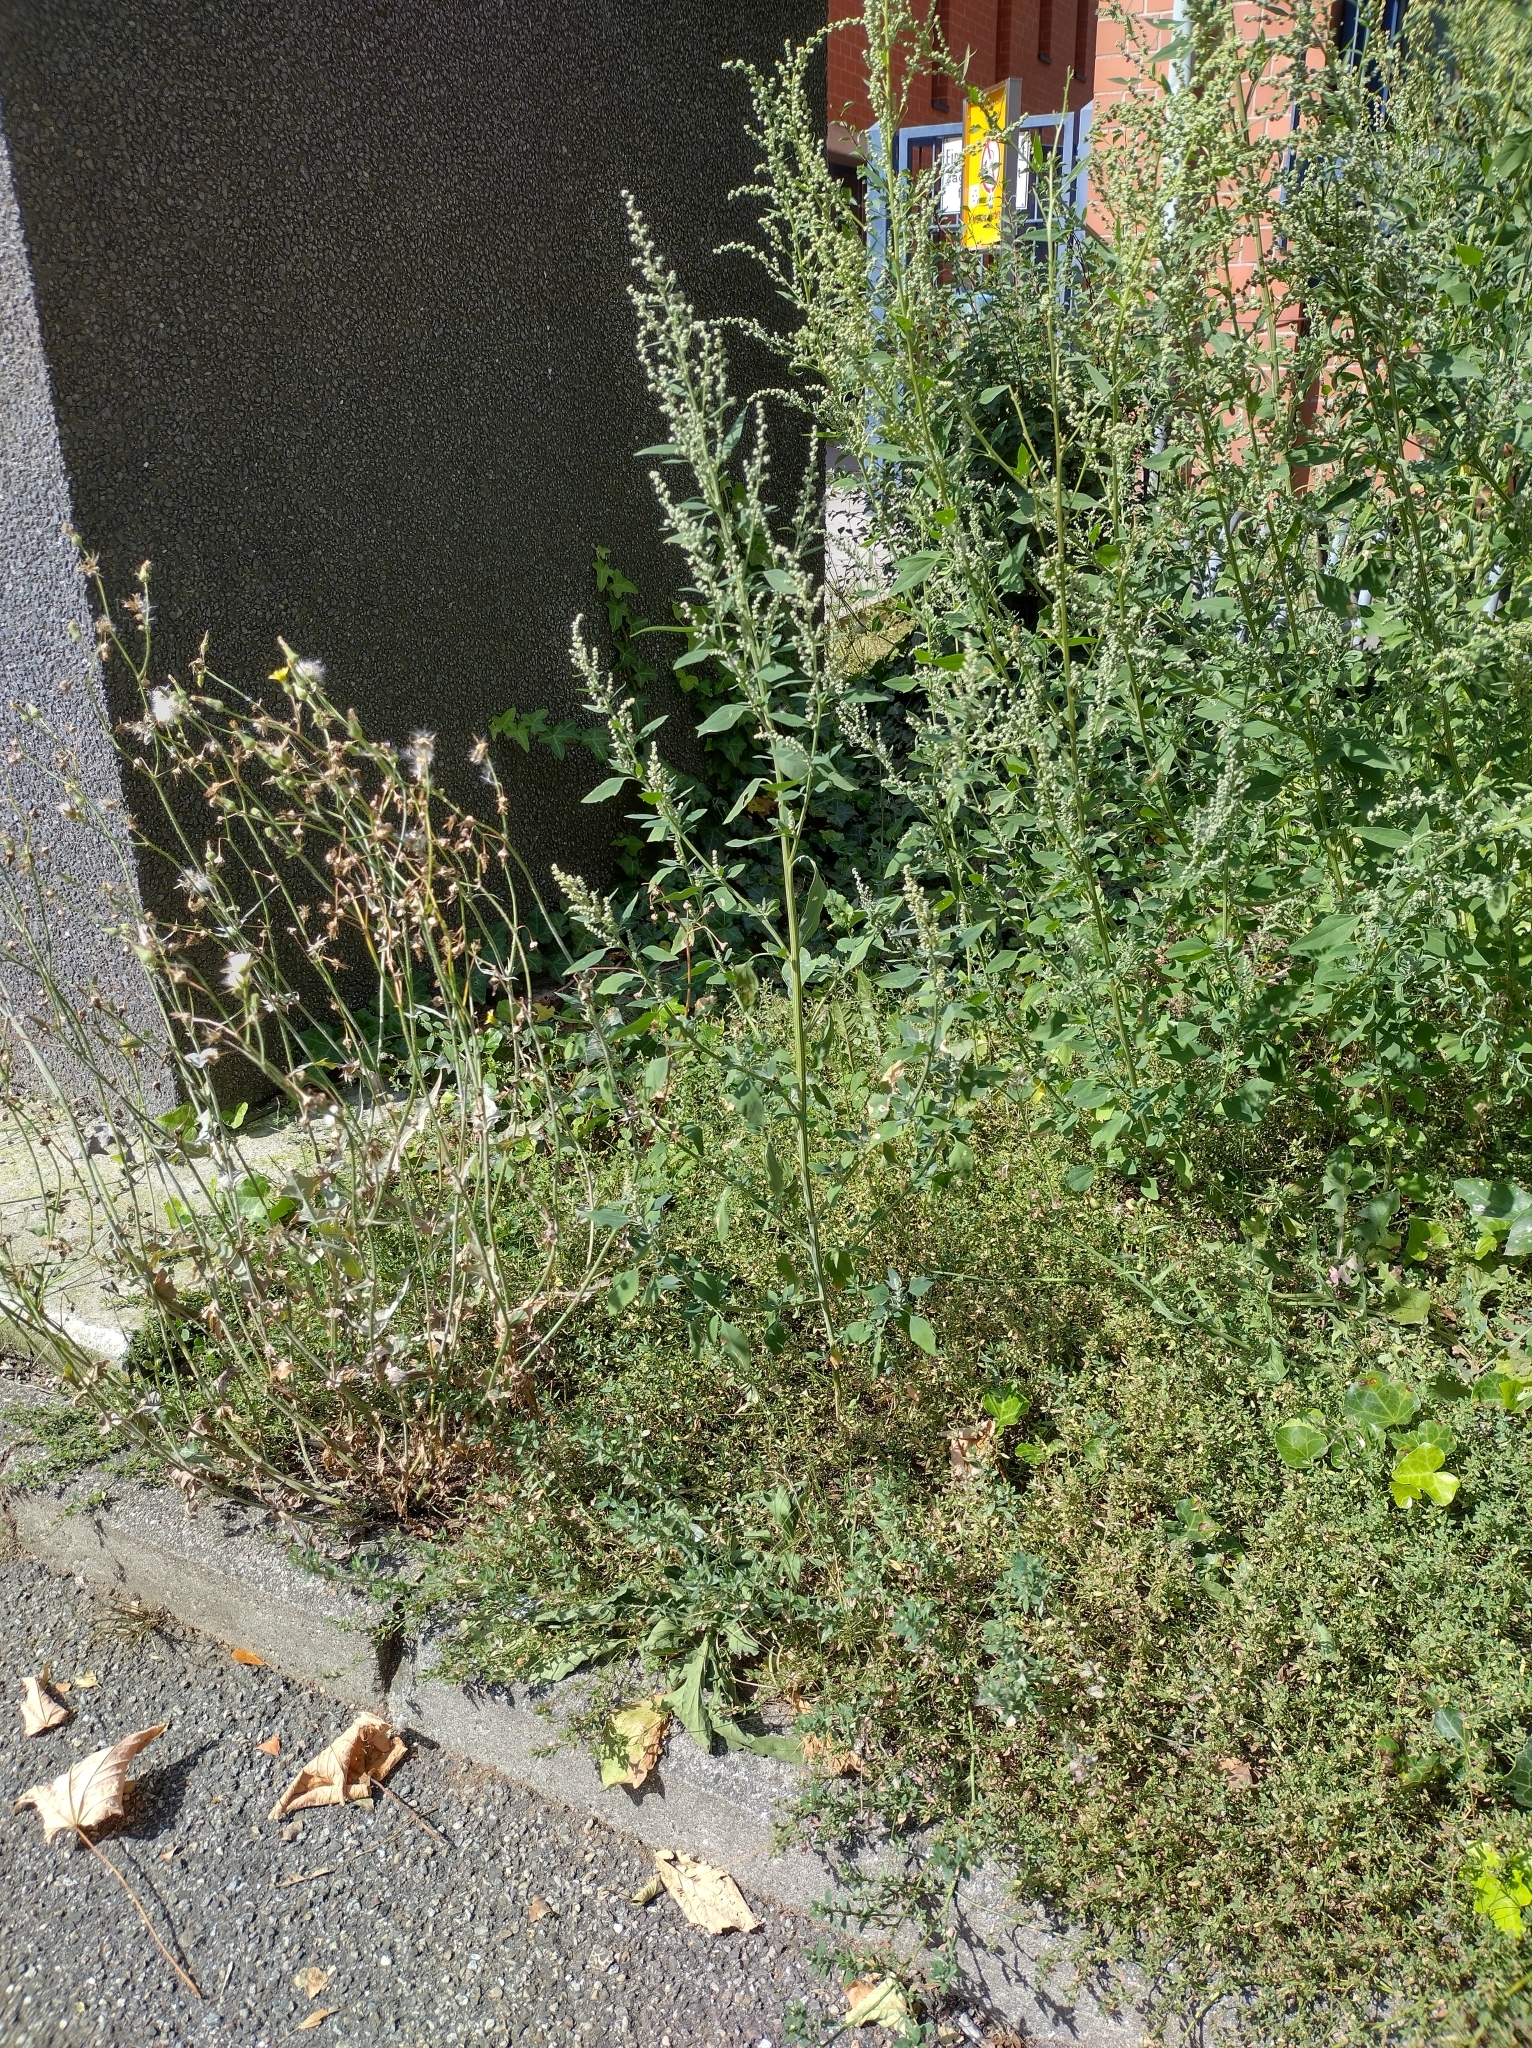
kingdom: Plantae
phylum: Tracheophyta
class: Magnoliopsida
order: Caryophyllales
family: Amaranthaceae
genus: Chenopodium
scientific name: Chenopodium album
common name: Fat-hen
